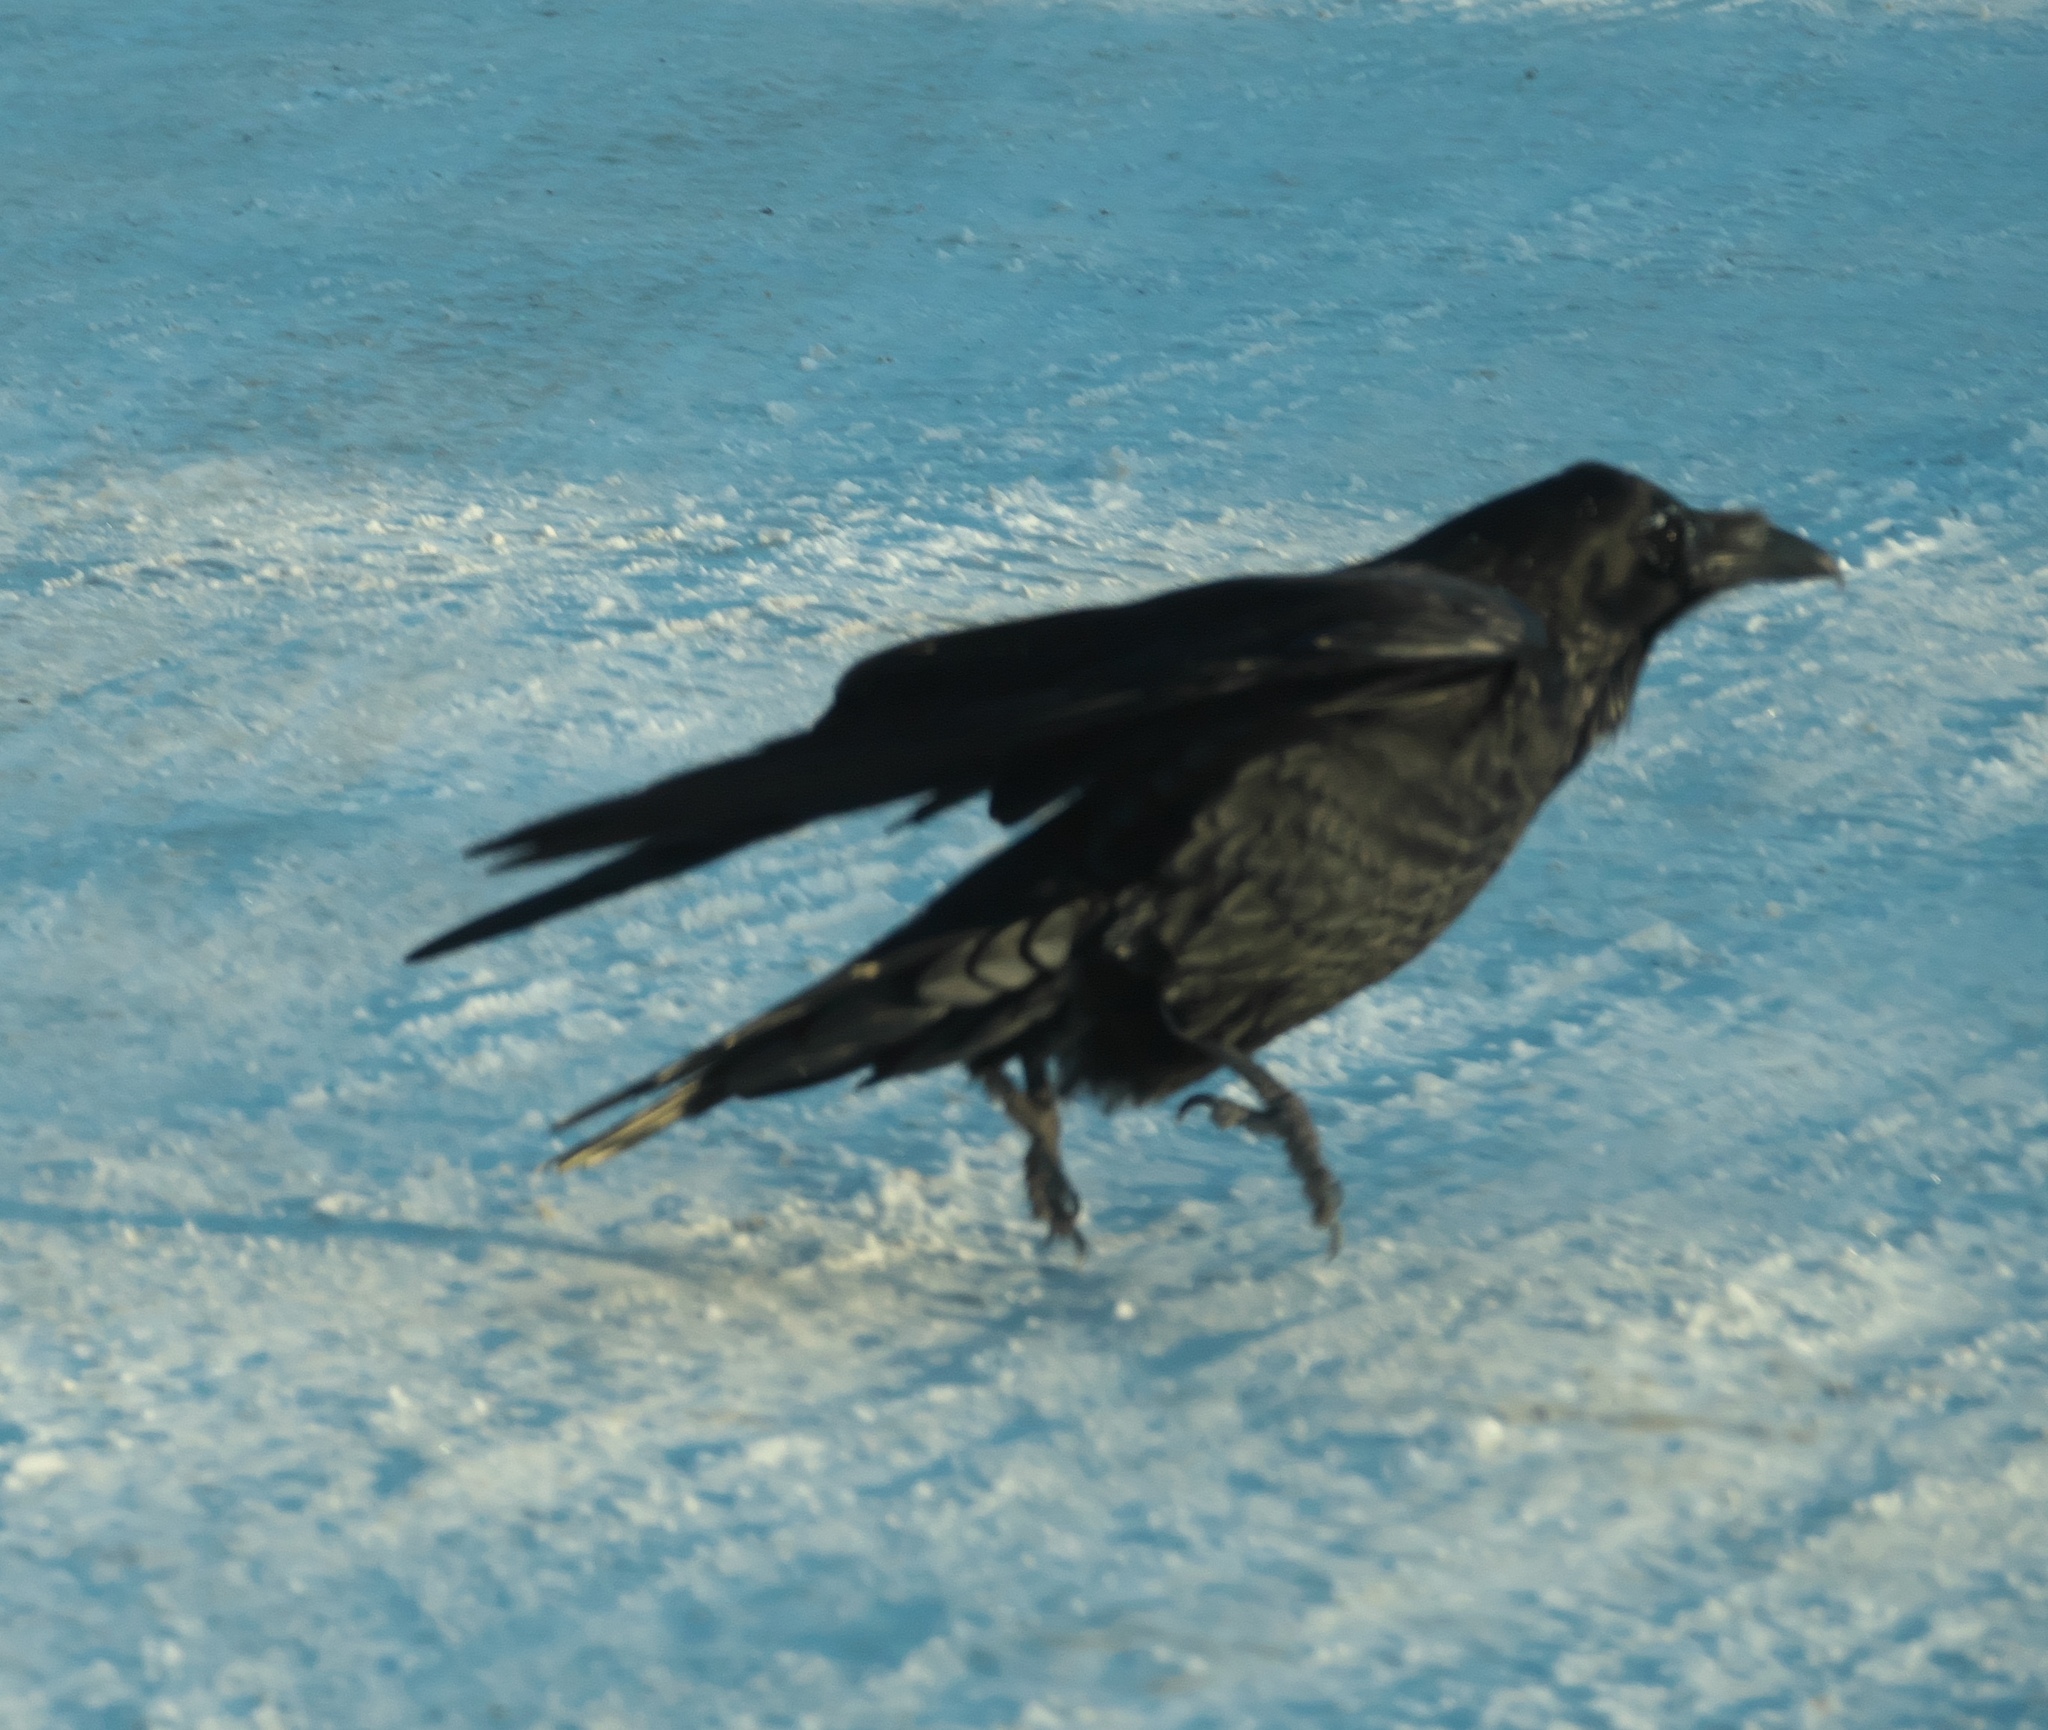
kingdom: Animalia
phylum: Chordata
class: Aves
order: Passeriformes
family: Corvidae
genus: Corvus
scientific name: Corvus corax
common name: Common raven
